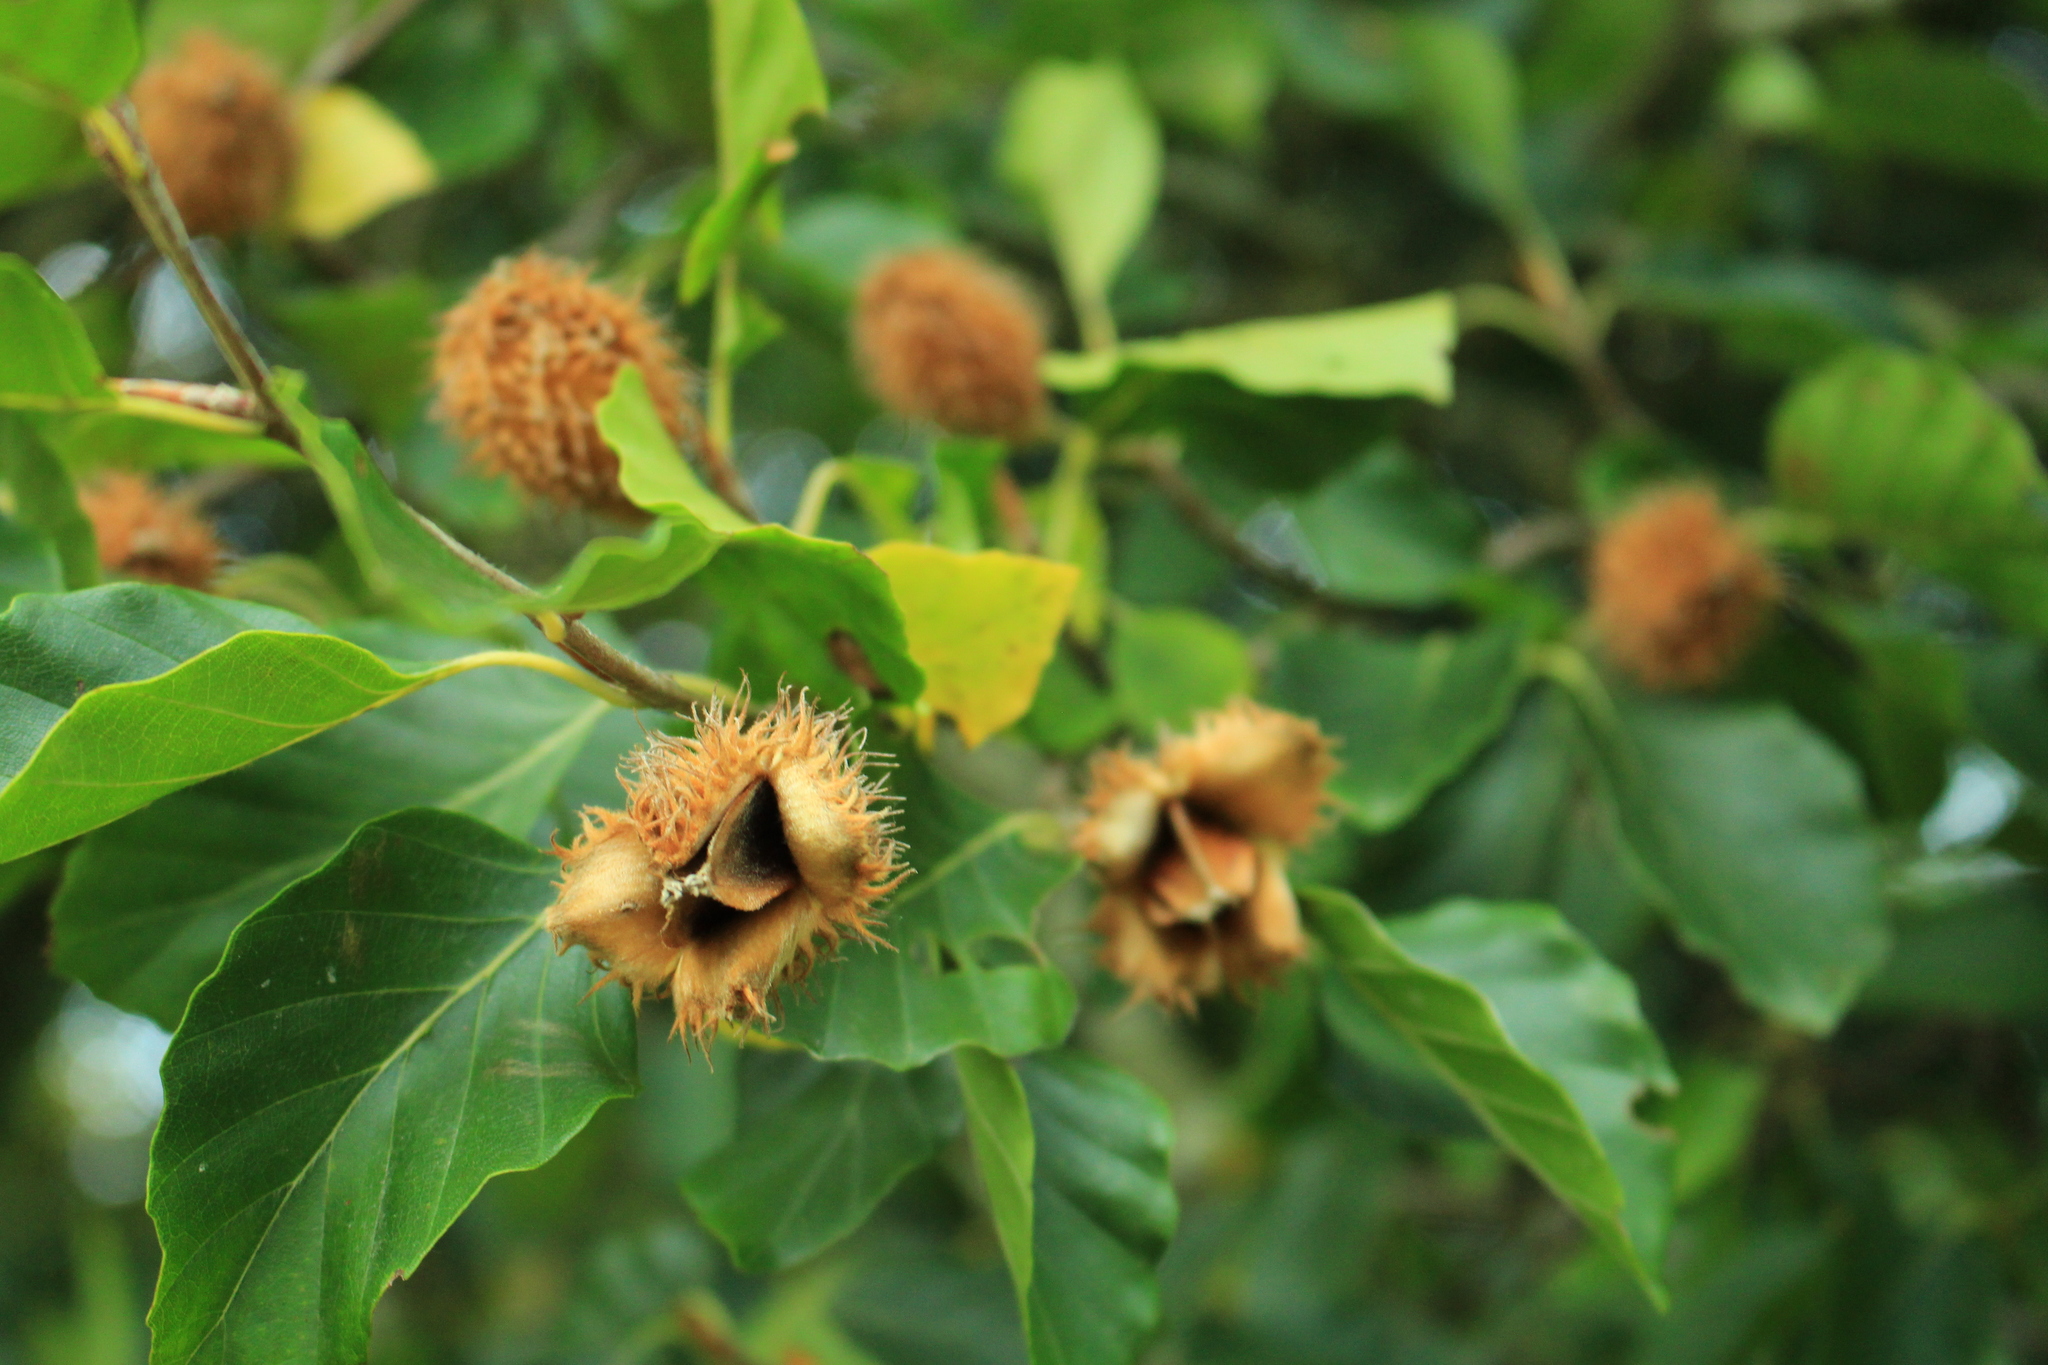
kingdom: Plantae
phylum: Tracheophyta
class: Magnoliopsida
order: Fagales
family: Fagaceae
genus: Fagus
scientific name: Fagus sylvatica
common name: Beech
